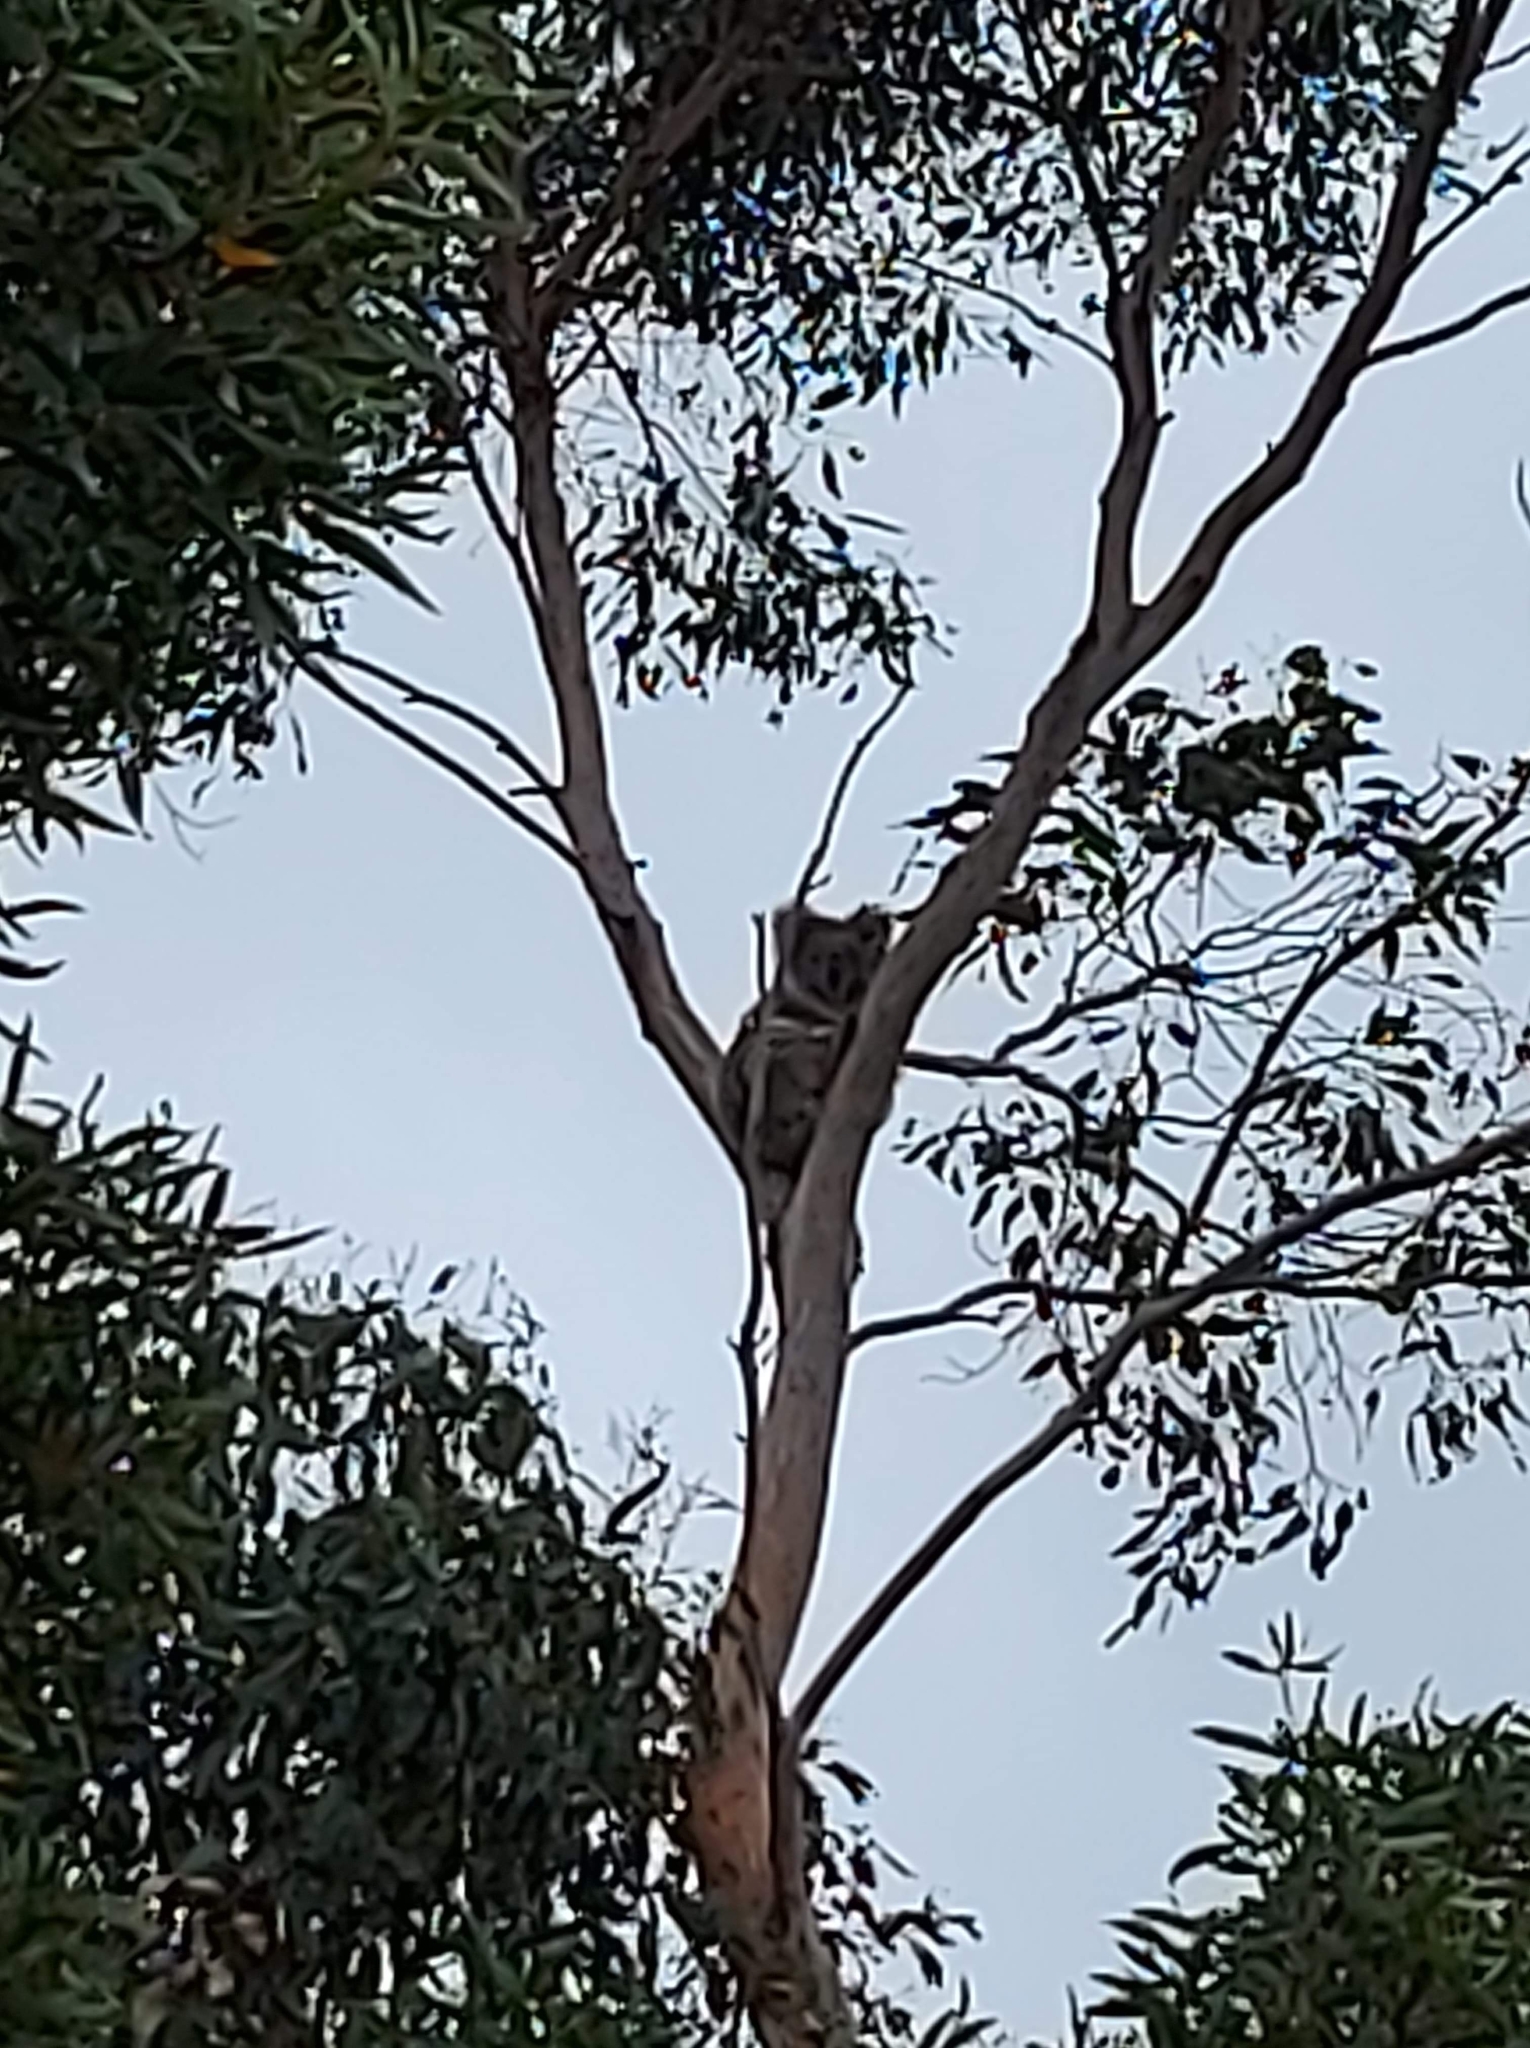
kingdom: Animalia
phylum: Chordata
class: Mammalia
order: Diprotodontia
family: Phascolarctidae
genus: Phascolarctos
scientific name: Phascolarctos cinereus
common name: Koala
